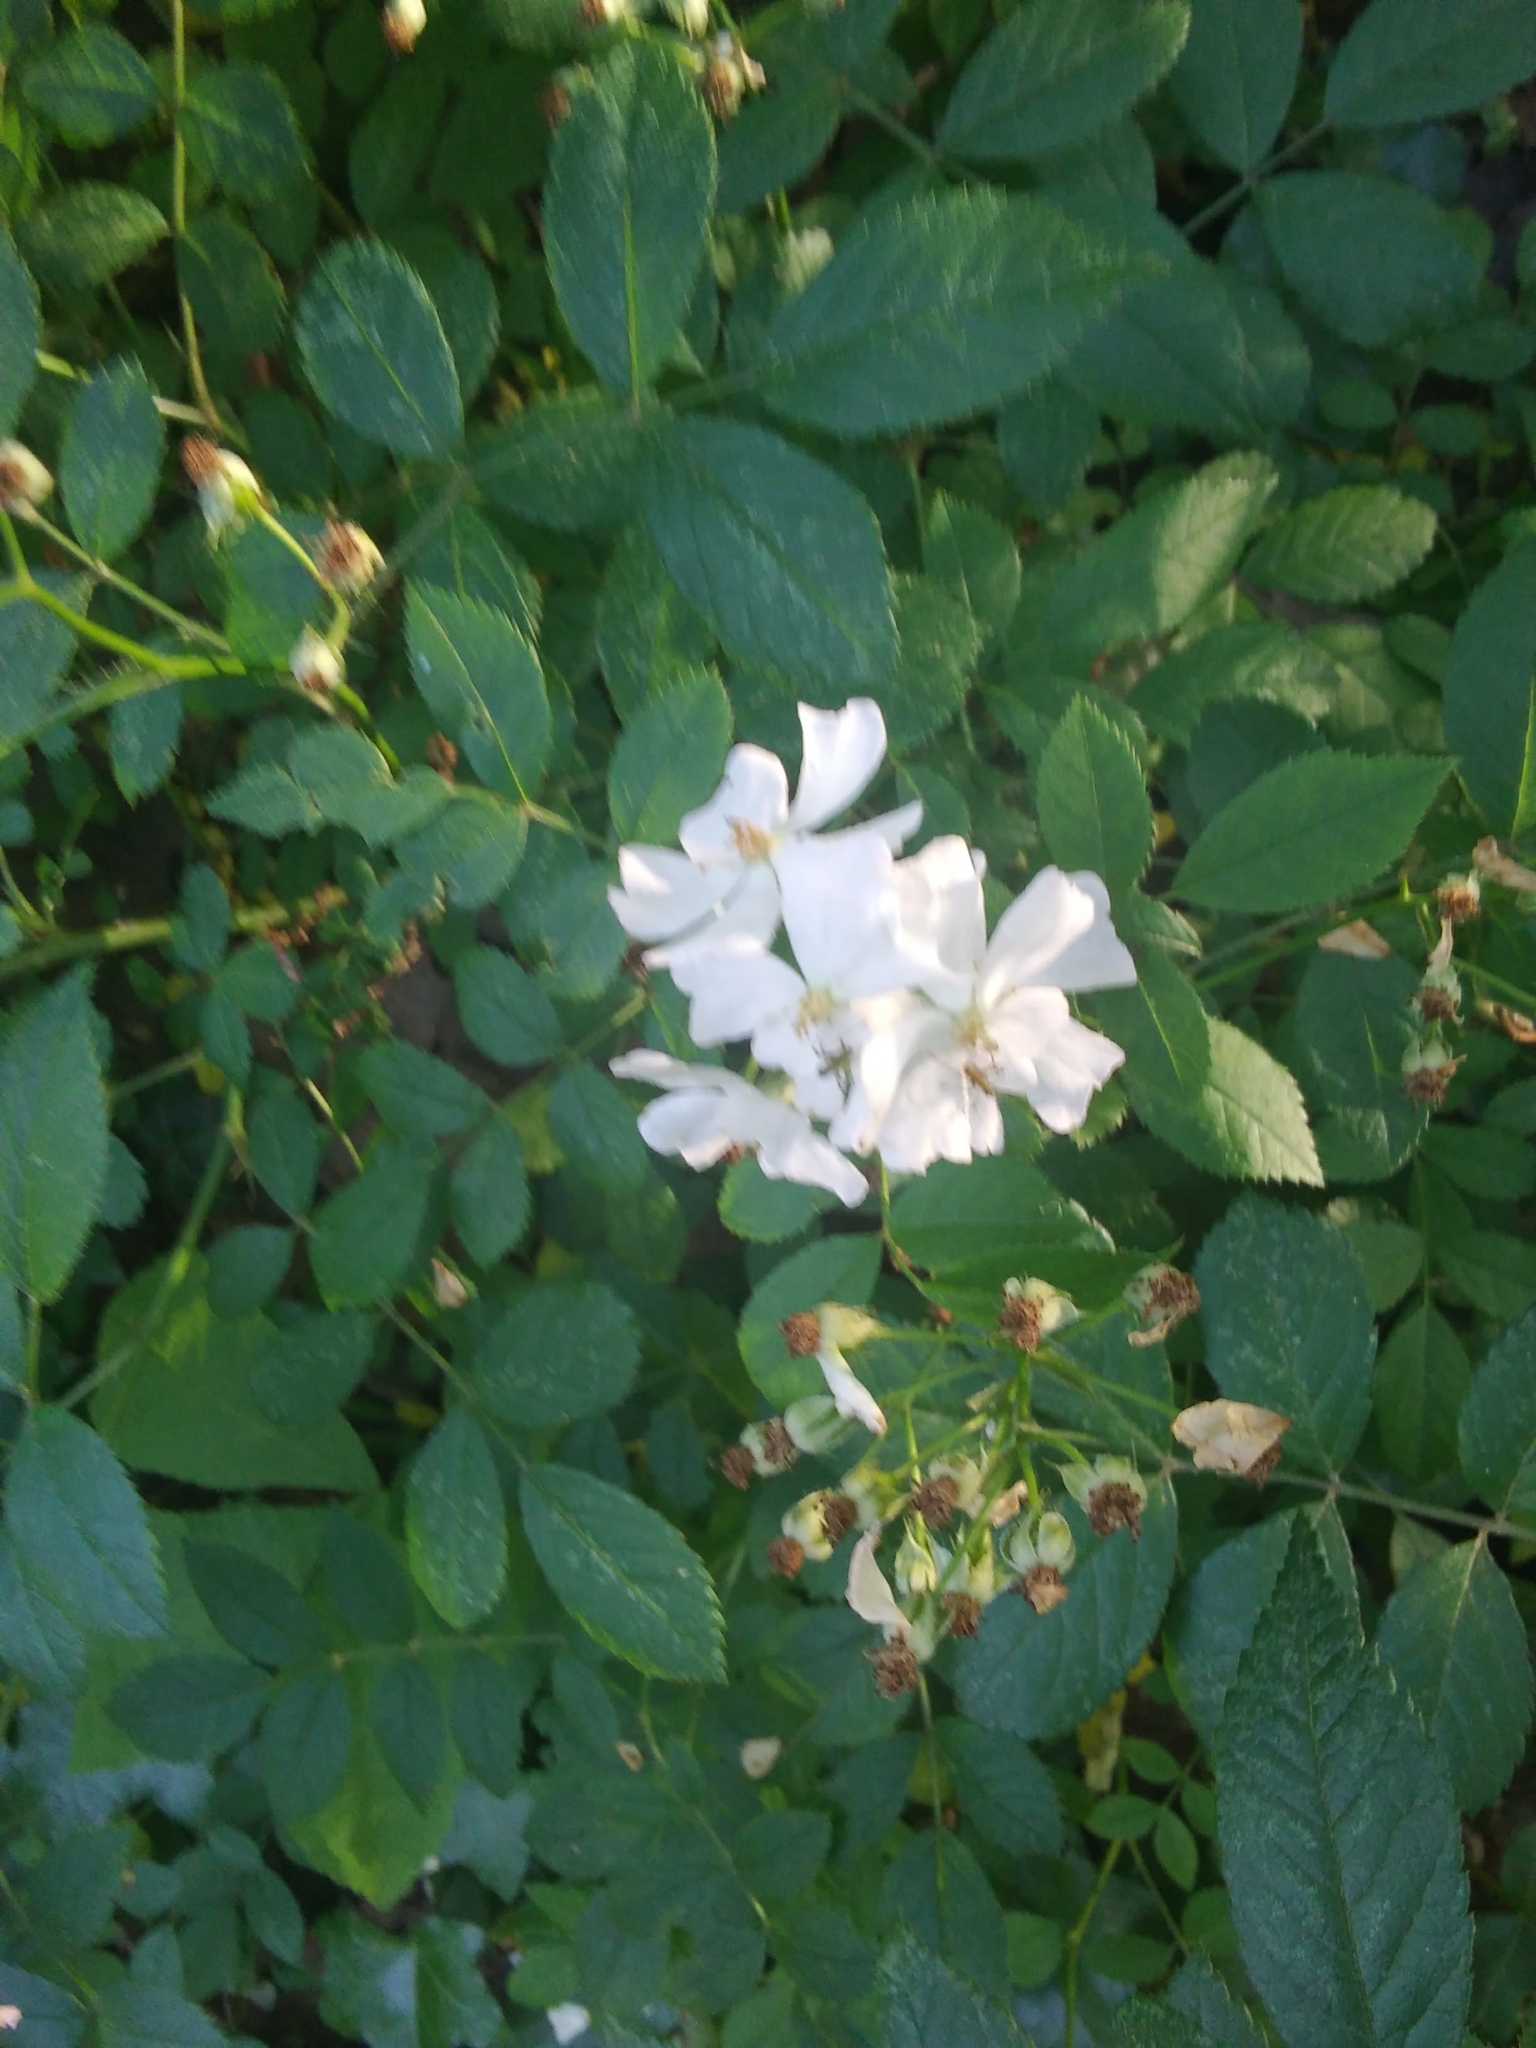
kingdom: Plantae
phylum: Tracheophyta
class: Magnoliopsida
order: Rosales
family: Rosaceae
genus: Rosa
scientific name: Rosa multiflora
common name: Multiflora rose
